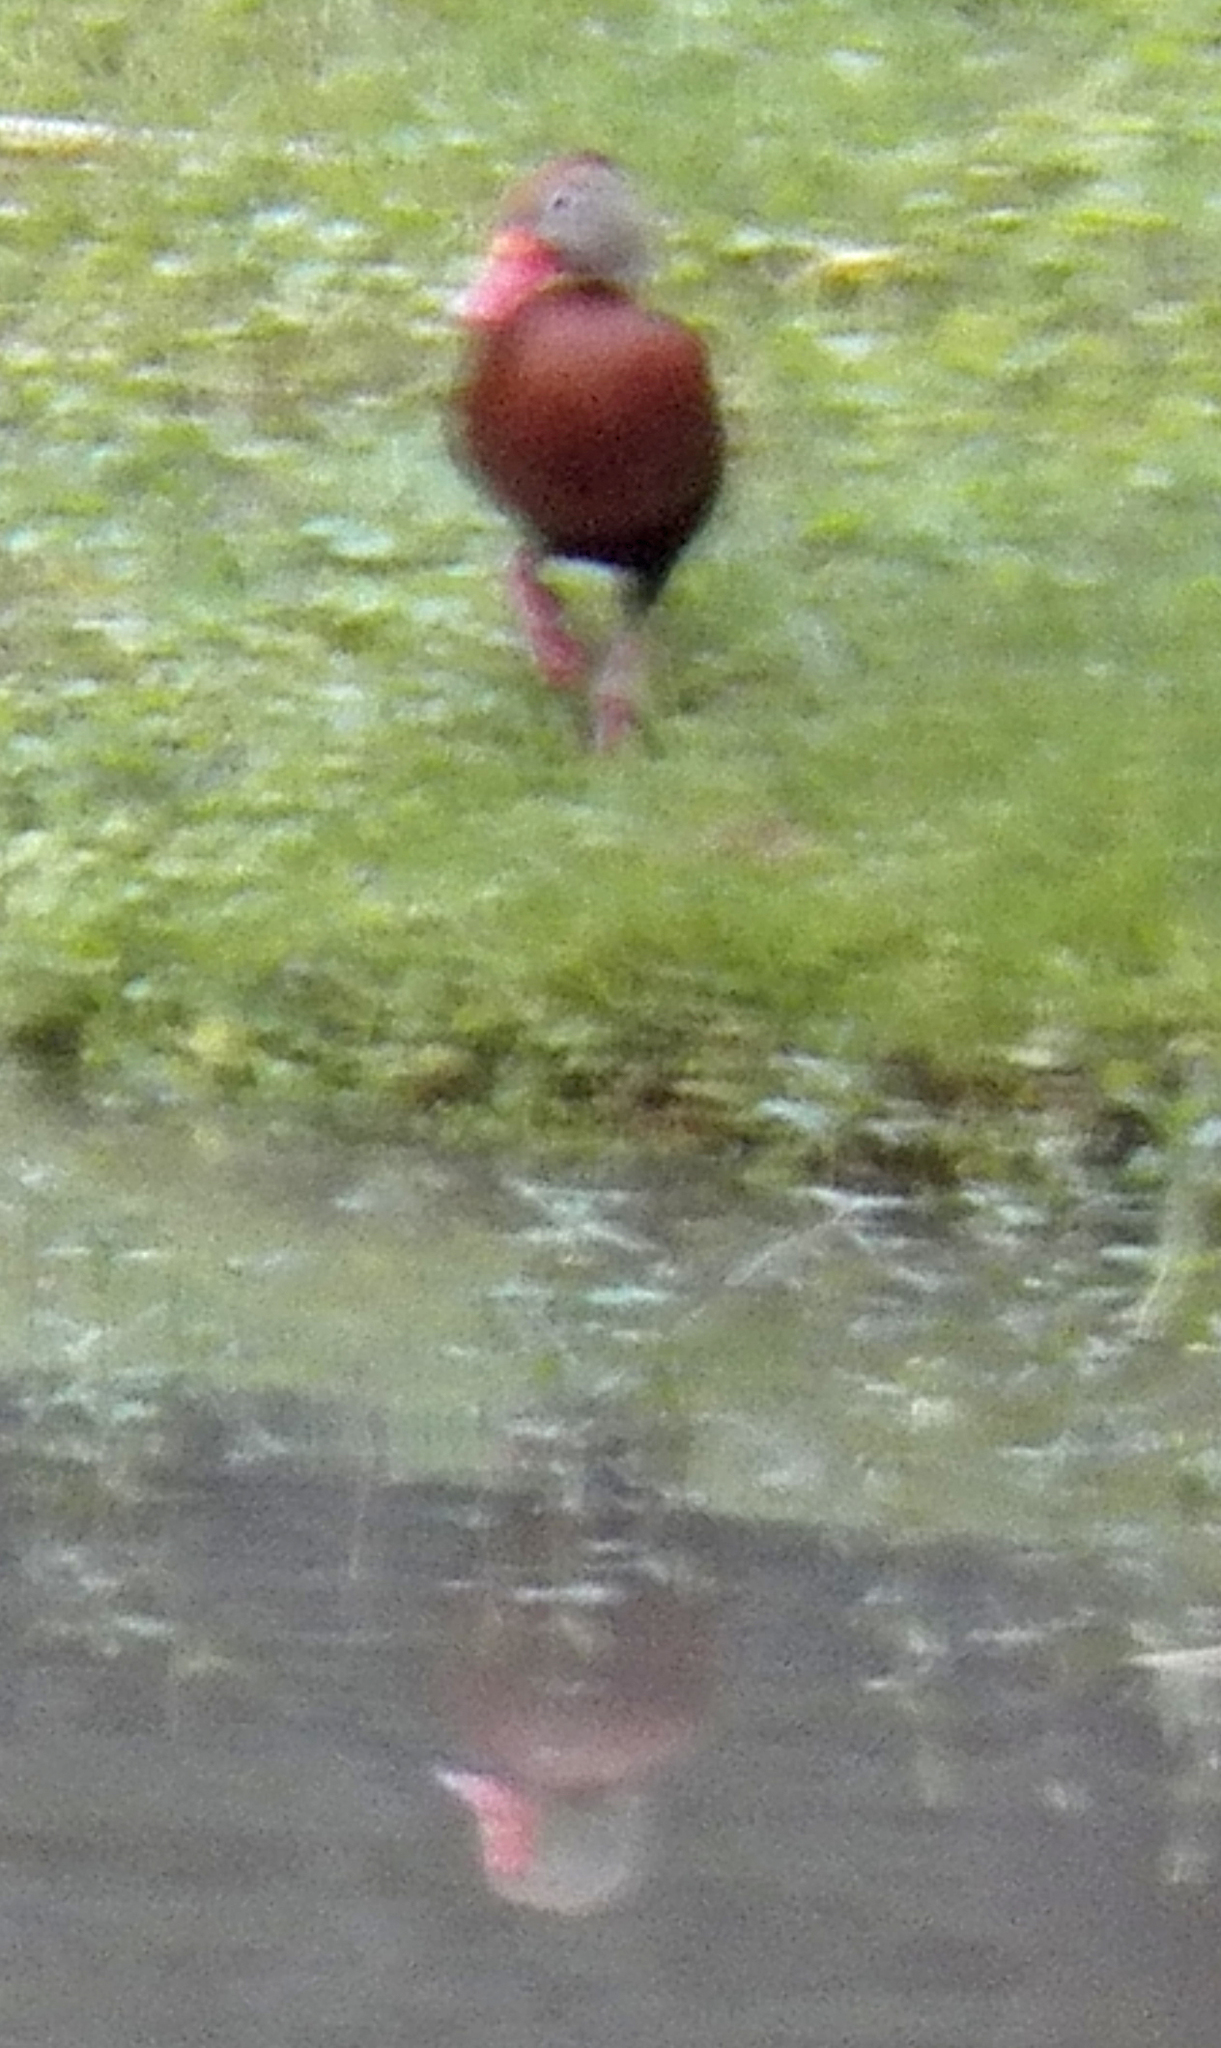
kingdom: Animalia
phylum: Chordata
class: Aves
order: Anseriformes
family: Anatidae
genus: Dendrocygna
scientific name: Dendrocygna autumnalis
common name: Black-bellied whistling duck
